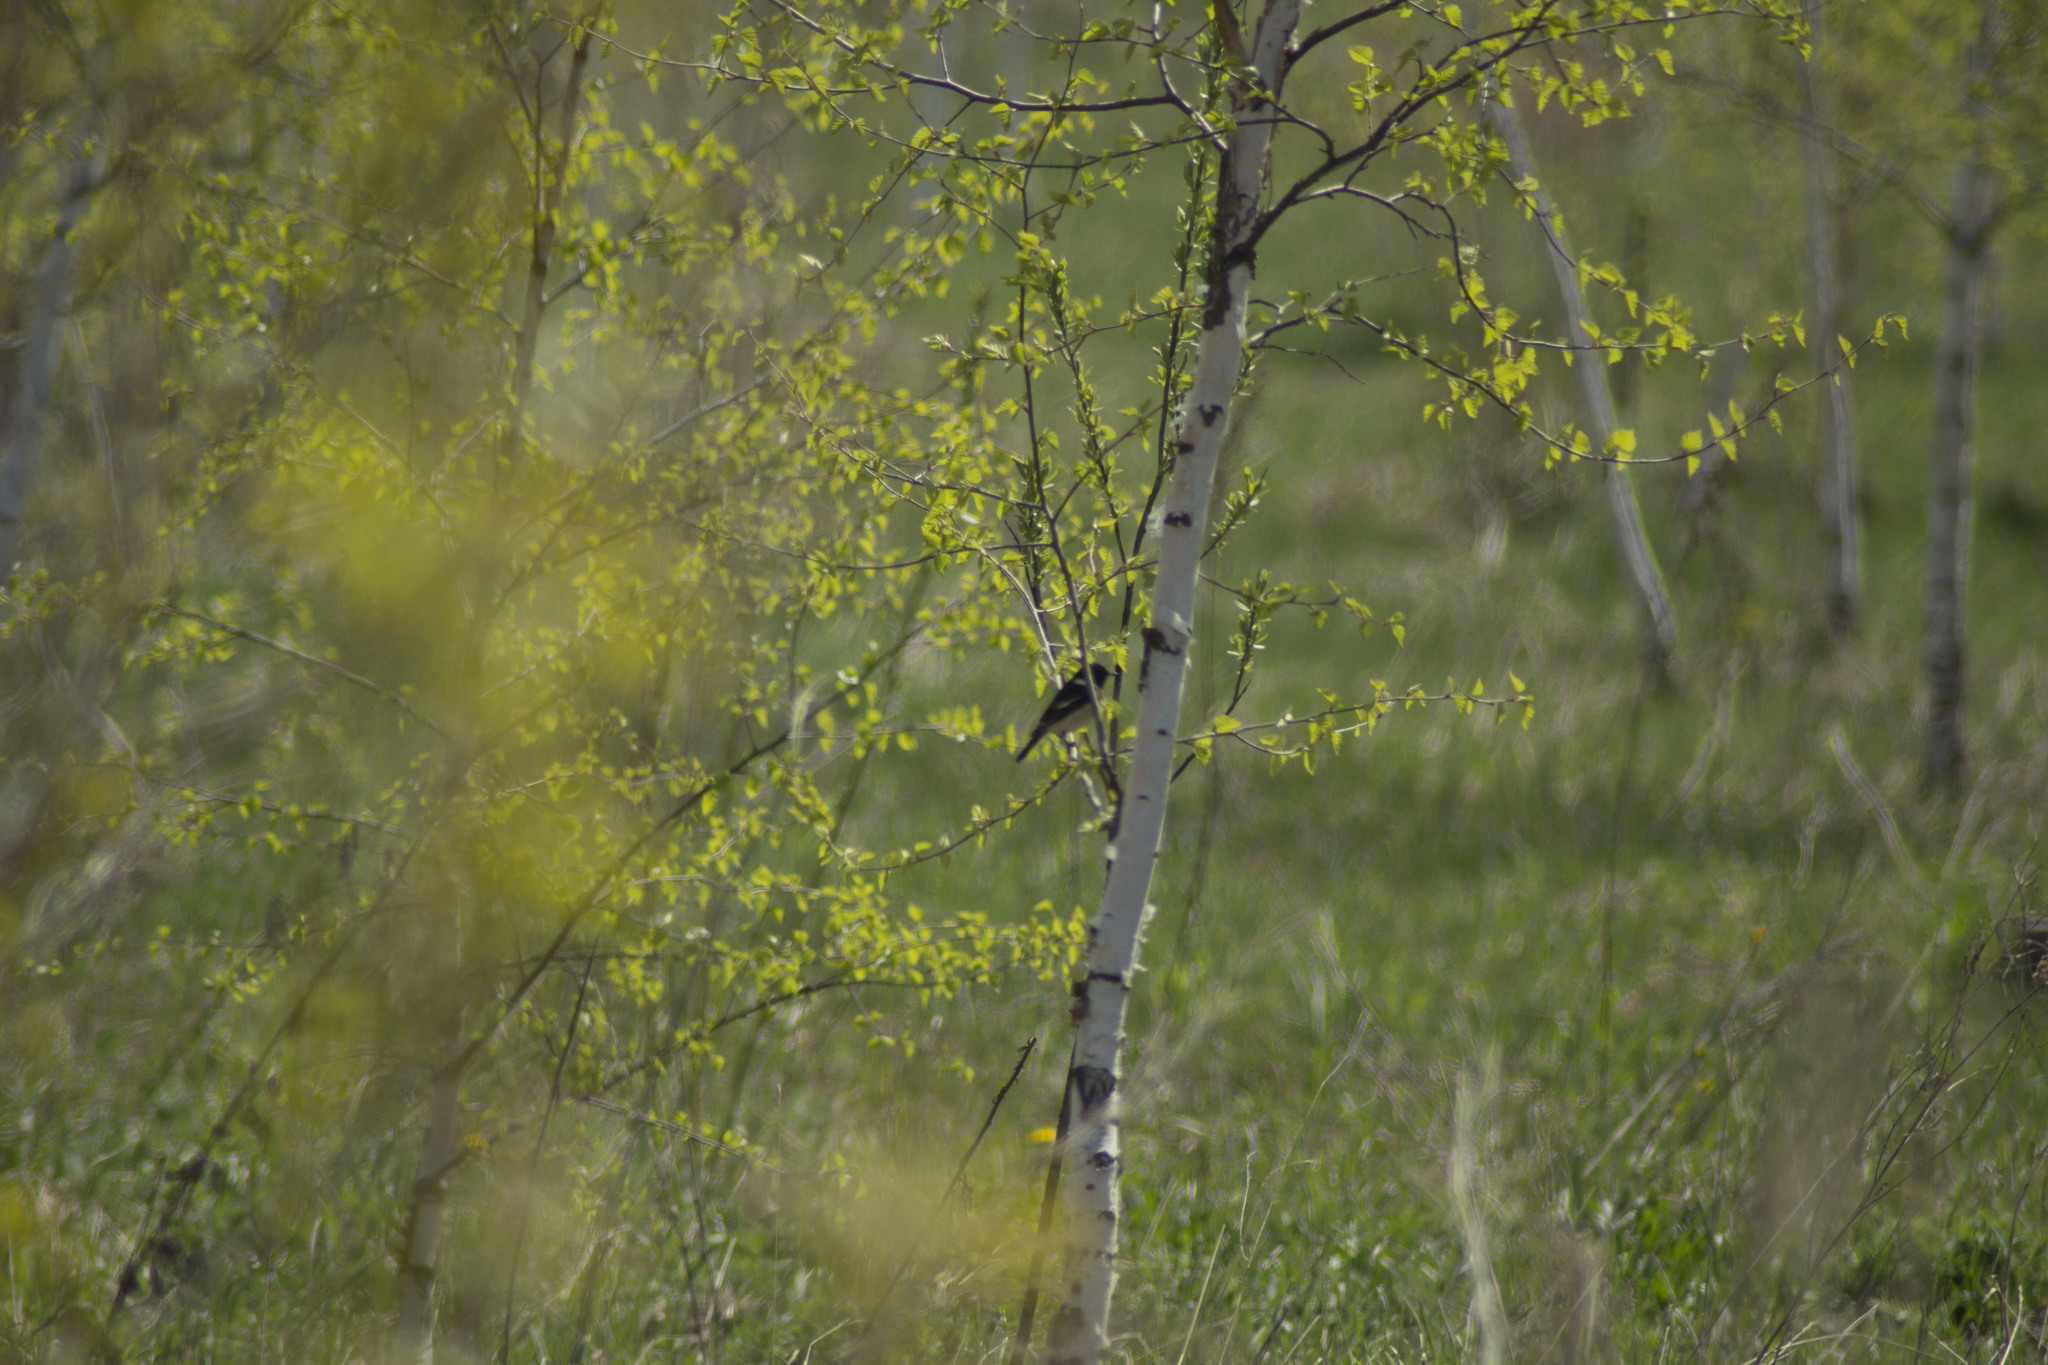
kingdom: Animalia
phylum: Chordata
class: Aves
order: Passeriformes
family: Muscicapidae
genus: Saxicola
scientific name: Saxicola maurus
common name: Siberian stonechat
